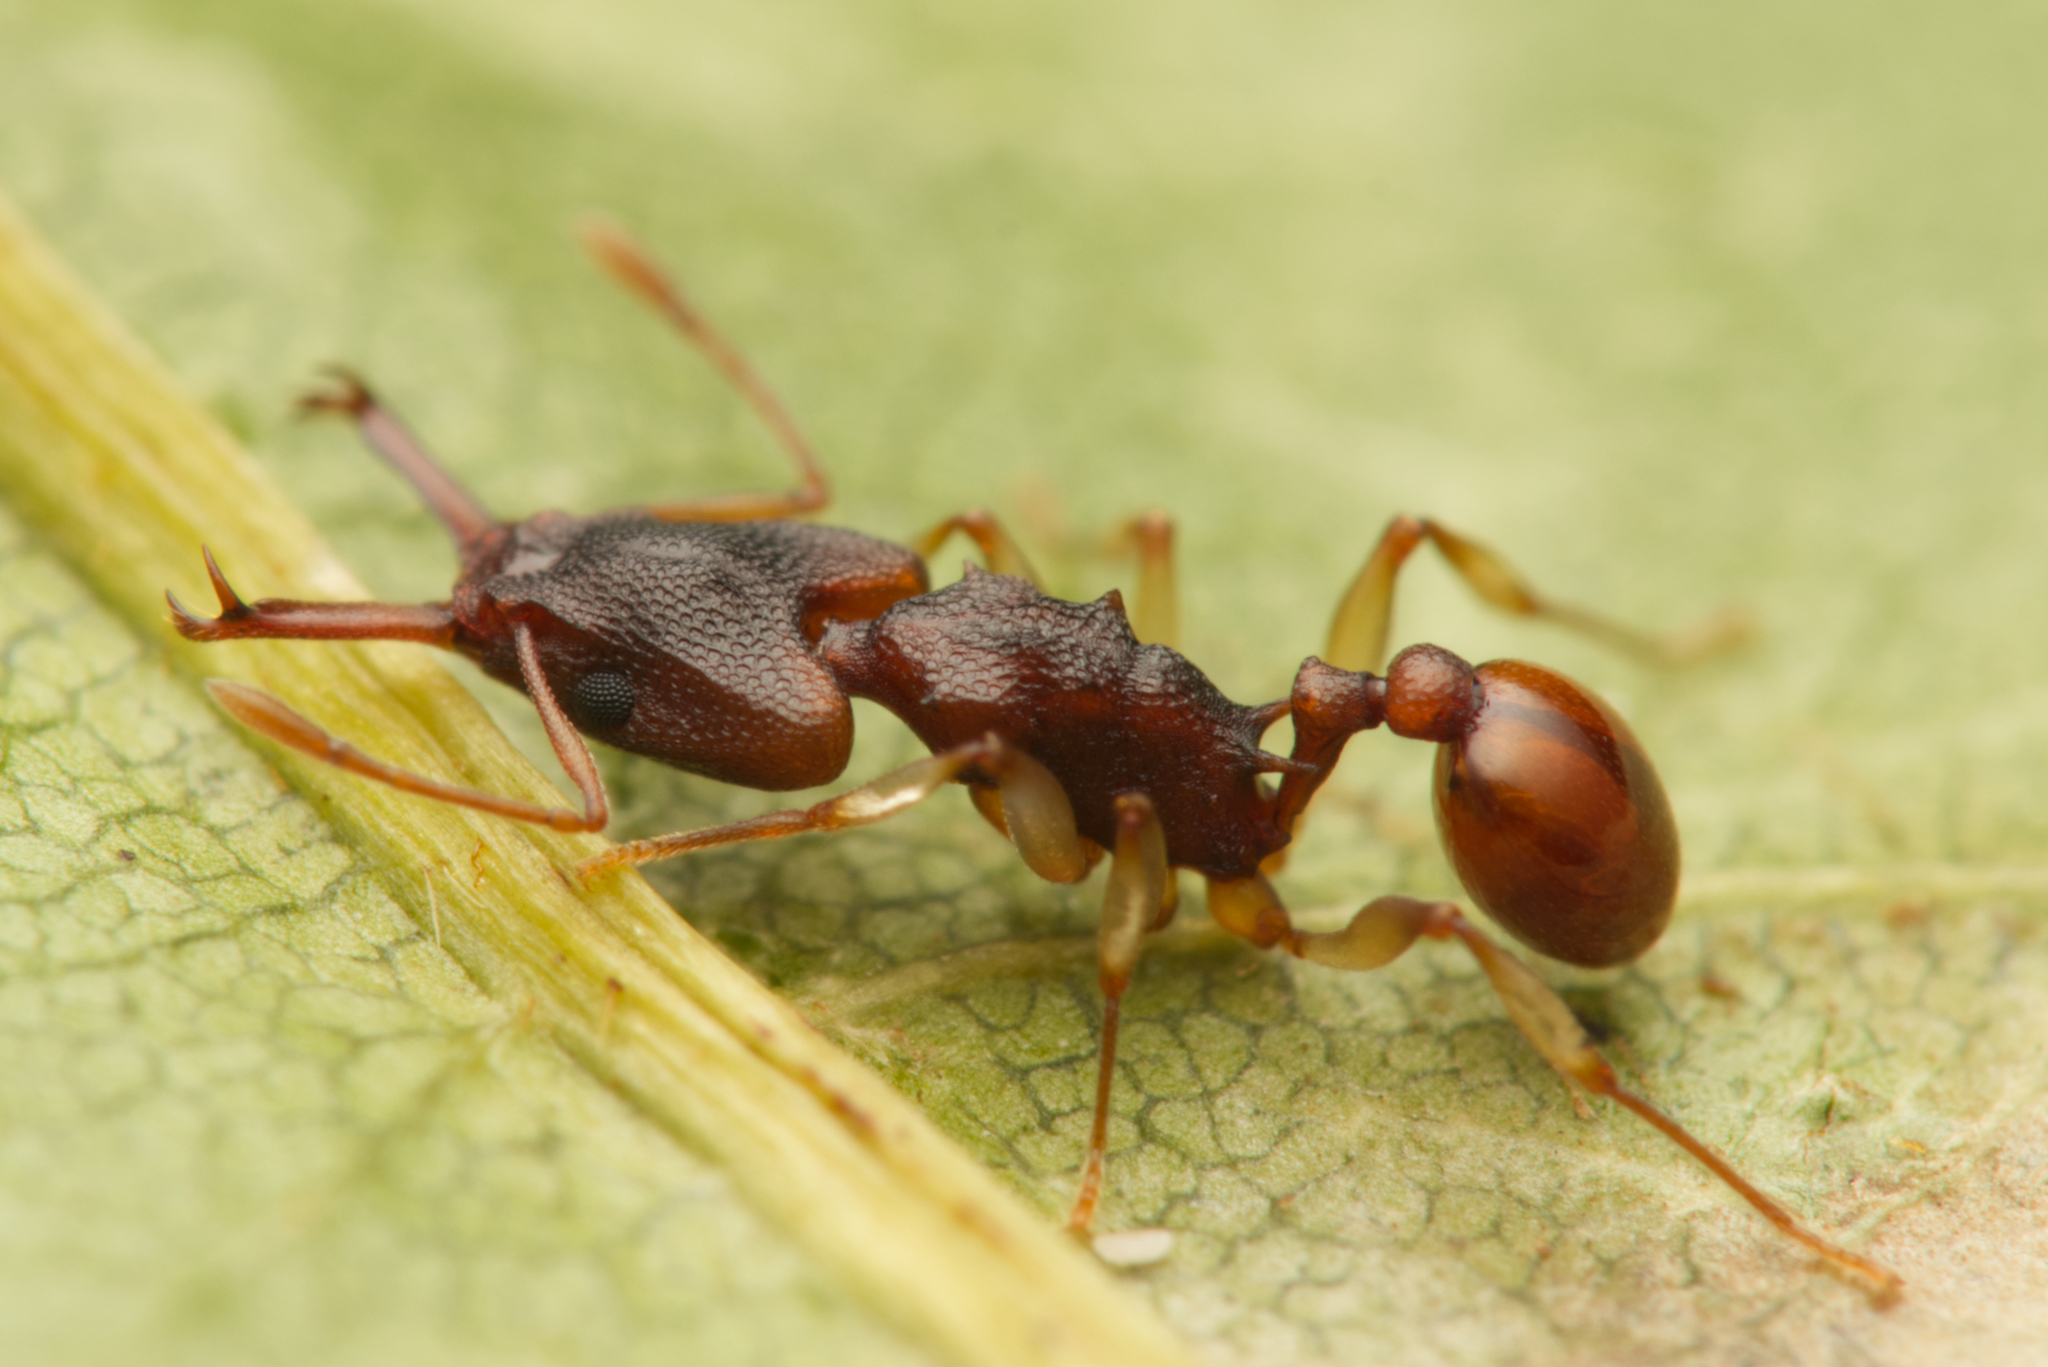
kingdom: Animalia
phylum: Arthropoda
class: Insecta
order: Hymenoptera
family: Formicidae
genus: Orectognathus
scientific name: Orectognathus mjobergi
